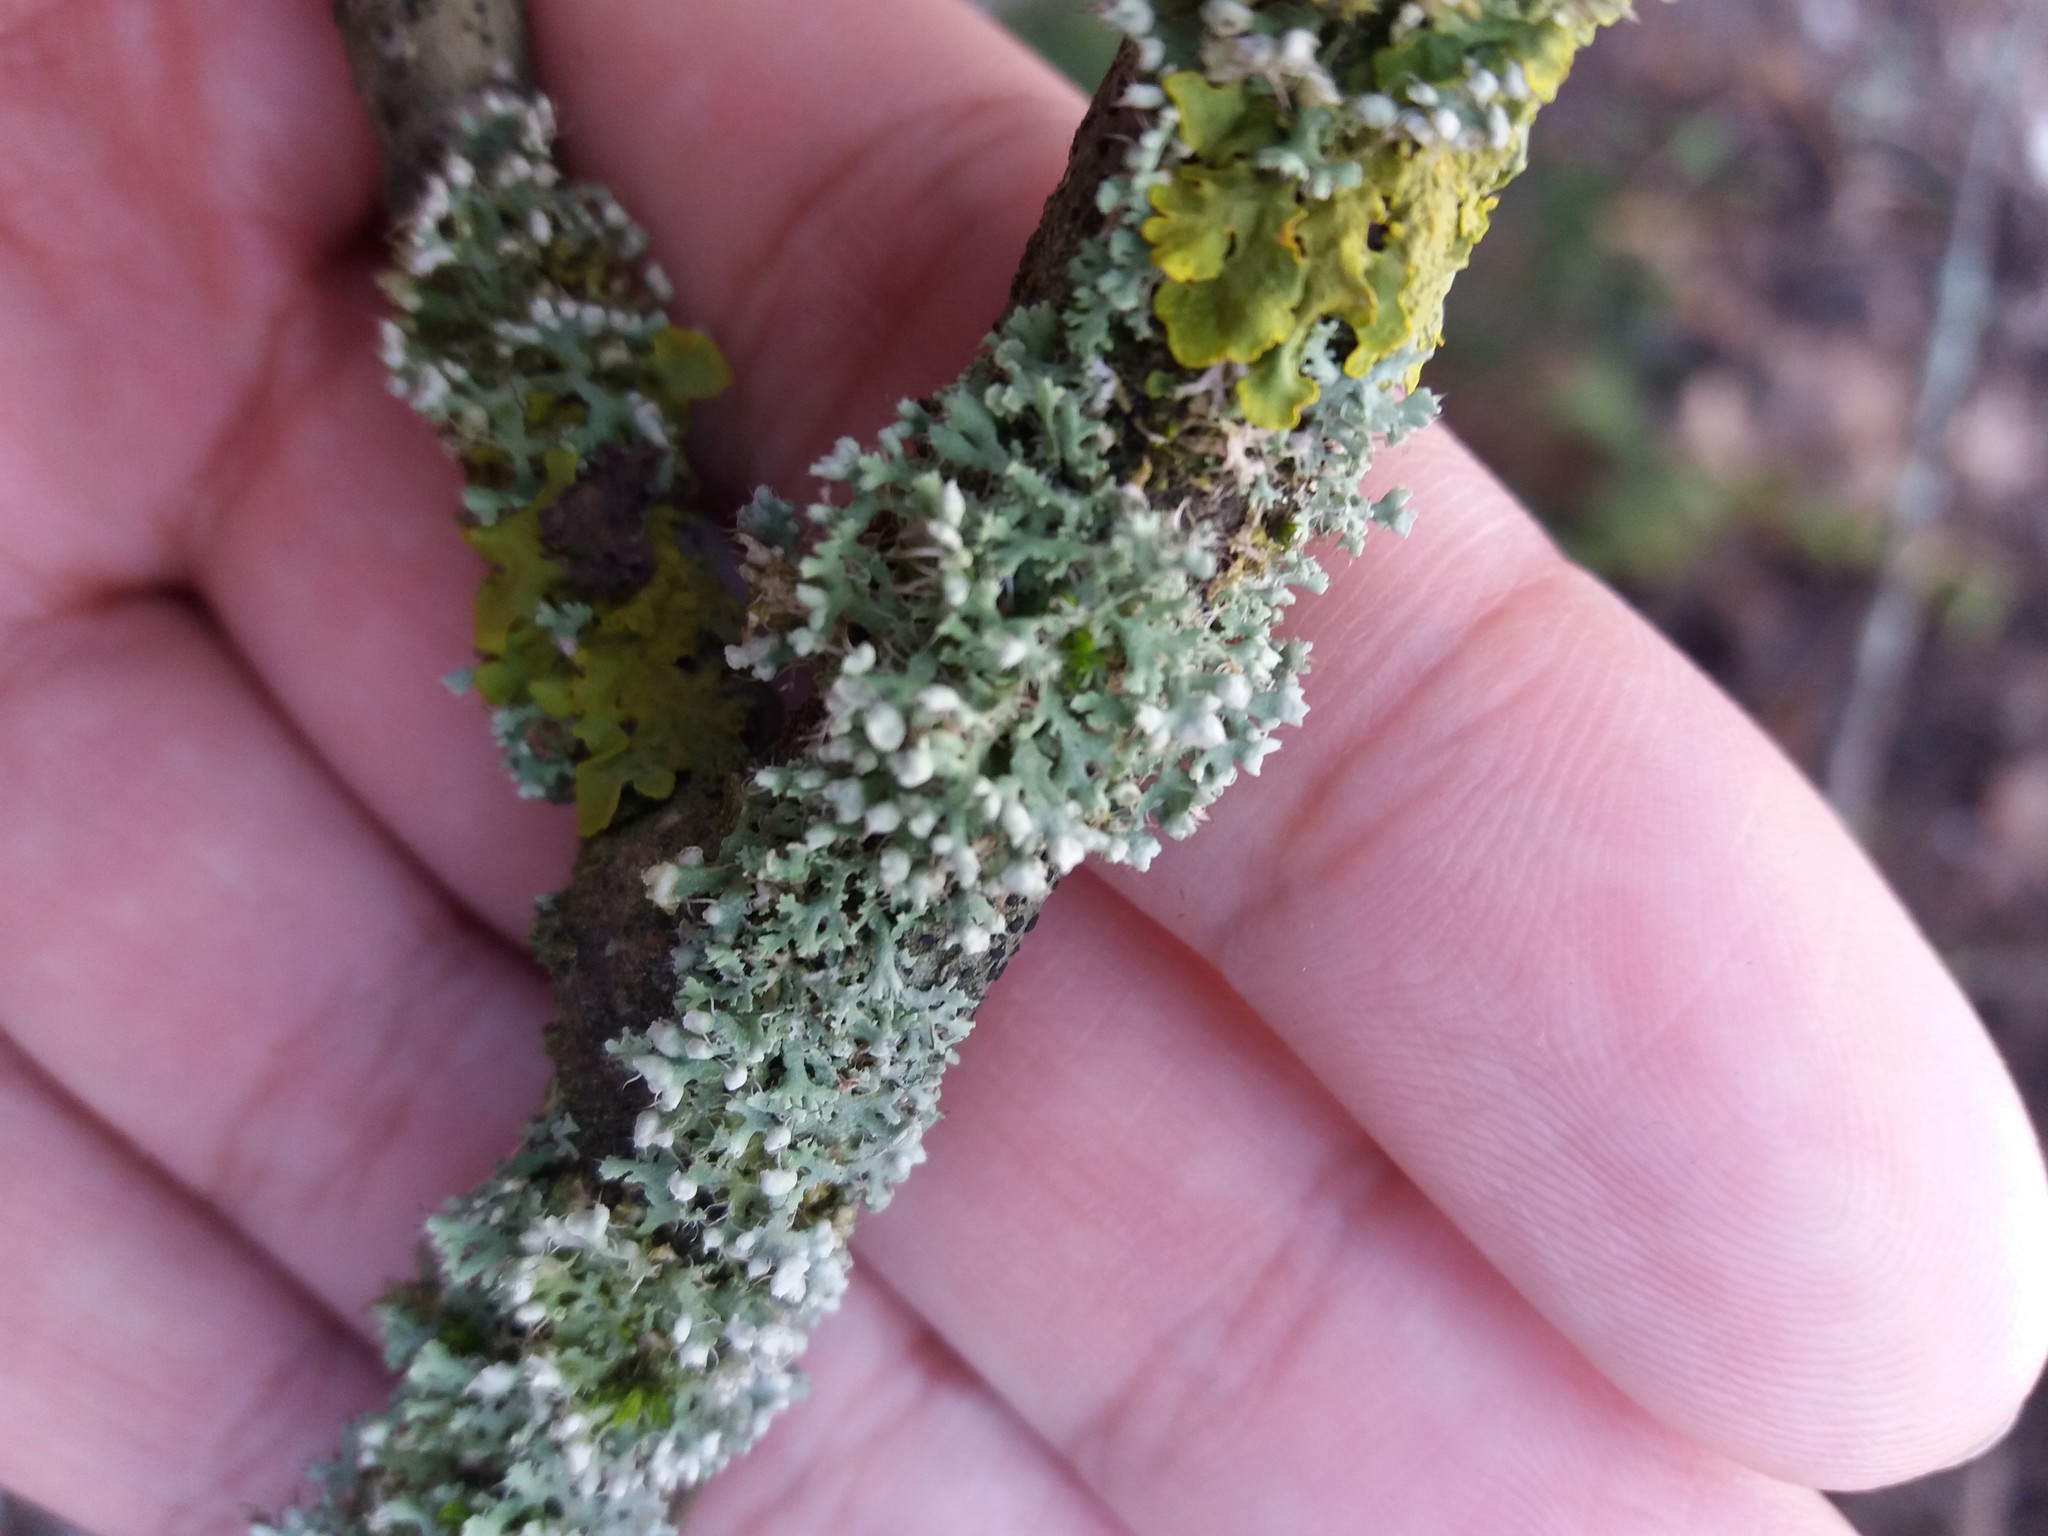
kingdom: Fungi
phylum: Ascomycota
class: Lecanoromycetes
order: Caliciales
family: Physciaceae
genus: Physcia
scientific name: Physcia adscendens
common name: Hooded rosette lichen
